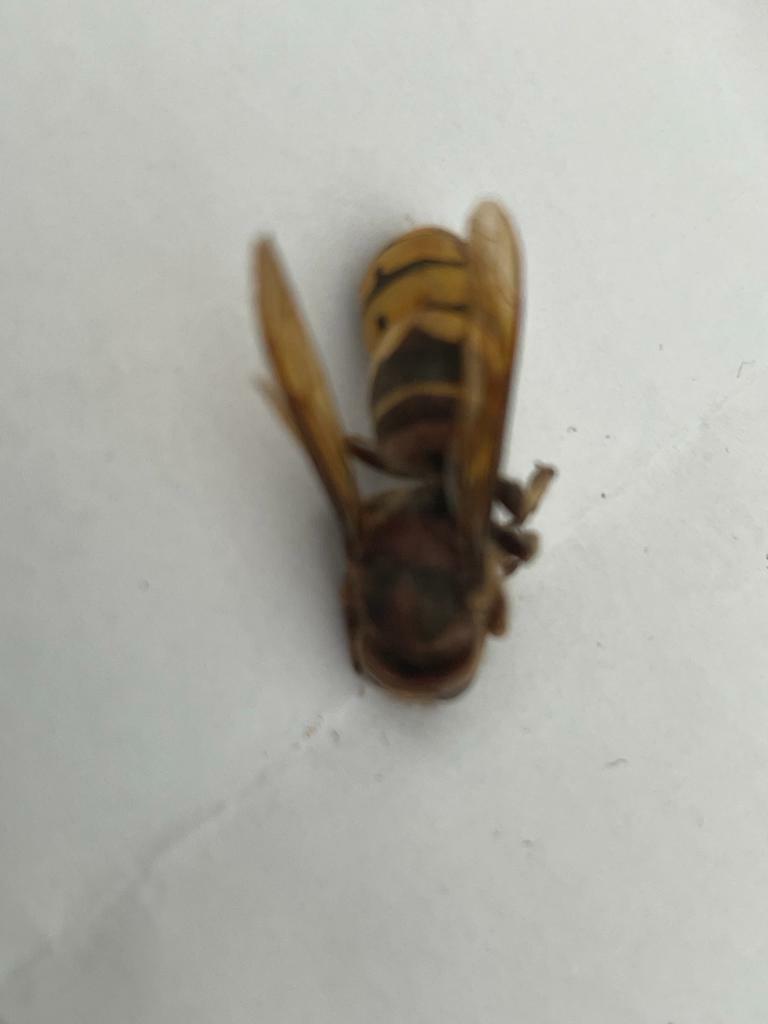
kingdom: Animalia
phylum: Arthropoda
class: Insecta
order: Hymenoptera
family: Vespidae
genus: Vespa
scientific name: Vespa crabro
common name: Hornet
